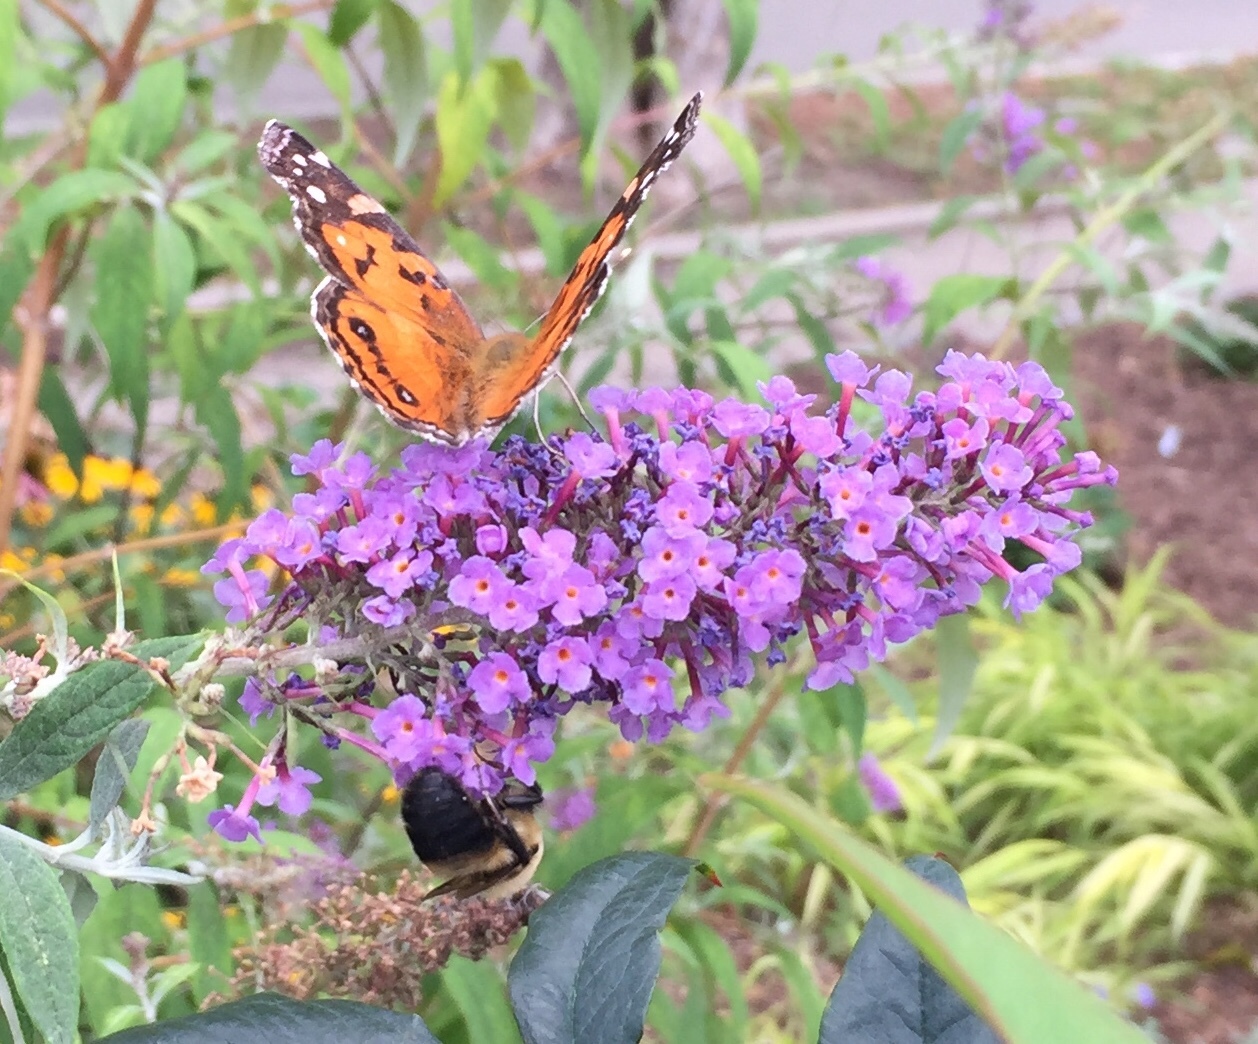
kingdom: Animalia
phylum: Arthropoda
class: Insecta
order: Lepidoptera
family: Nymphalidae
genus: Vanessa
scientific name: Vanessa virginiensis
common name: American lady
